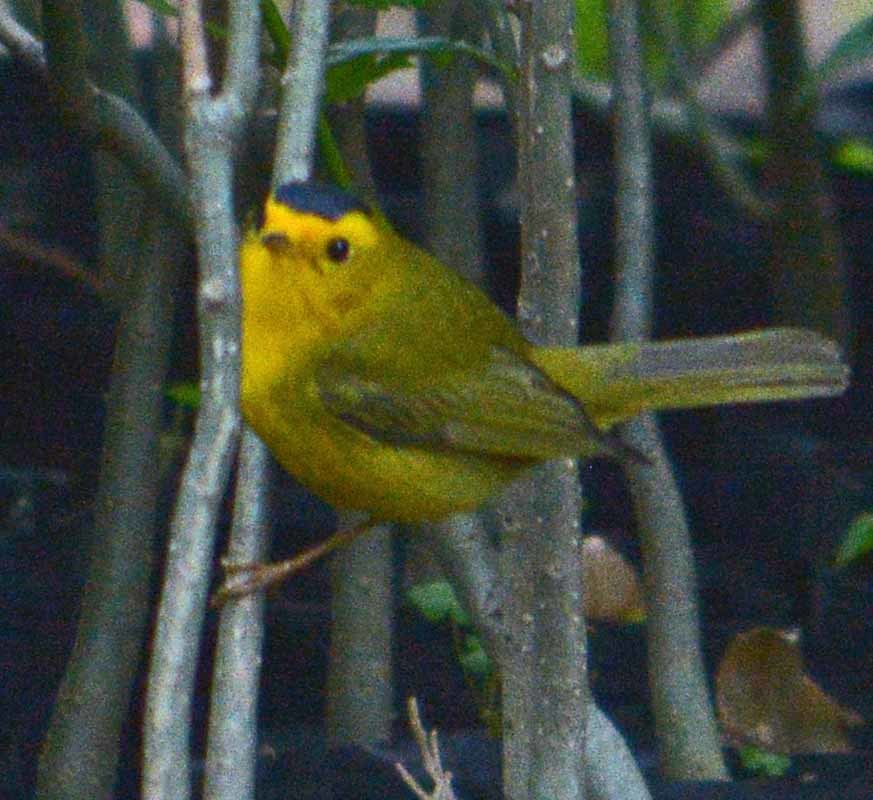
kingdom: Animalia
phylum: Chordata
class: Aves
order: Passeriformes
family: Parulidae
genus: Cardellina
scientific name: Cardellina pusilla
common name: Wilson's warbler
